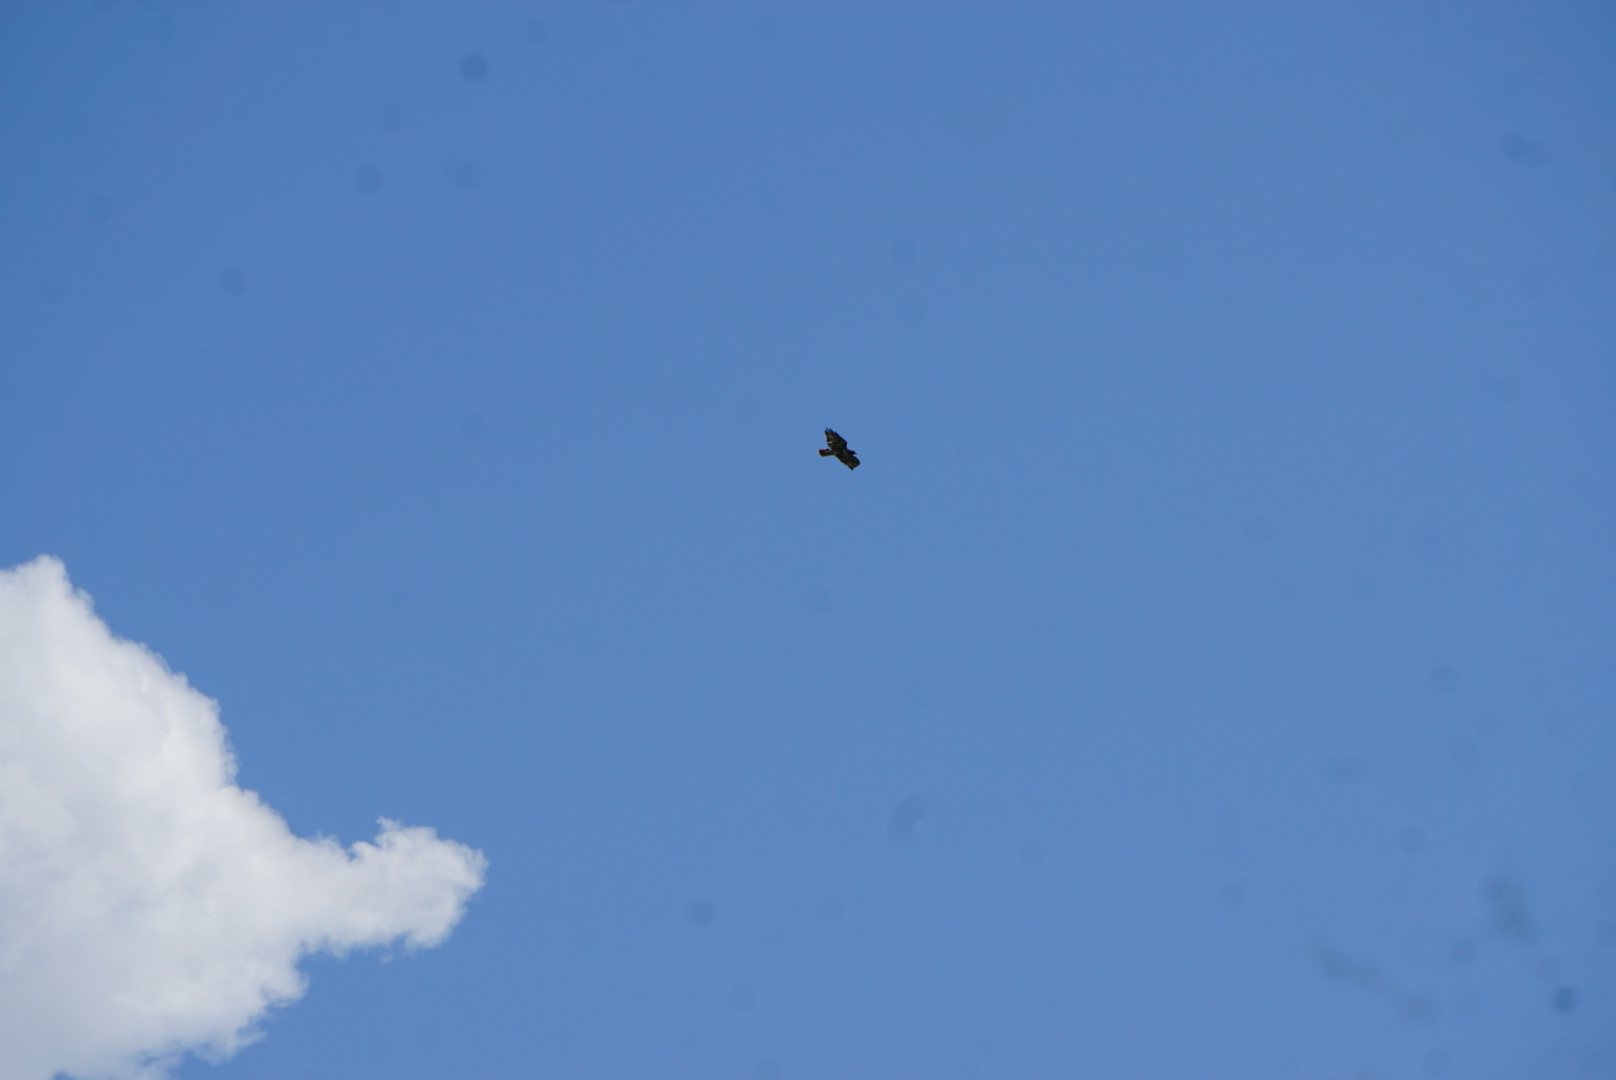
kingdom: Animalia
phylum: Chordata
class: Aves
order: Accipitriformes
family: Accipitridae
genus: Buteo
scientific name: Buteo jamaicensis
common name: Red-tailed hawk
